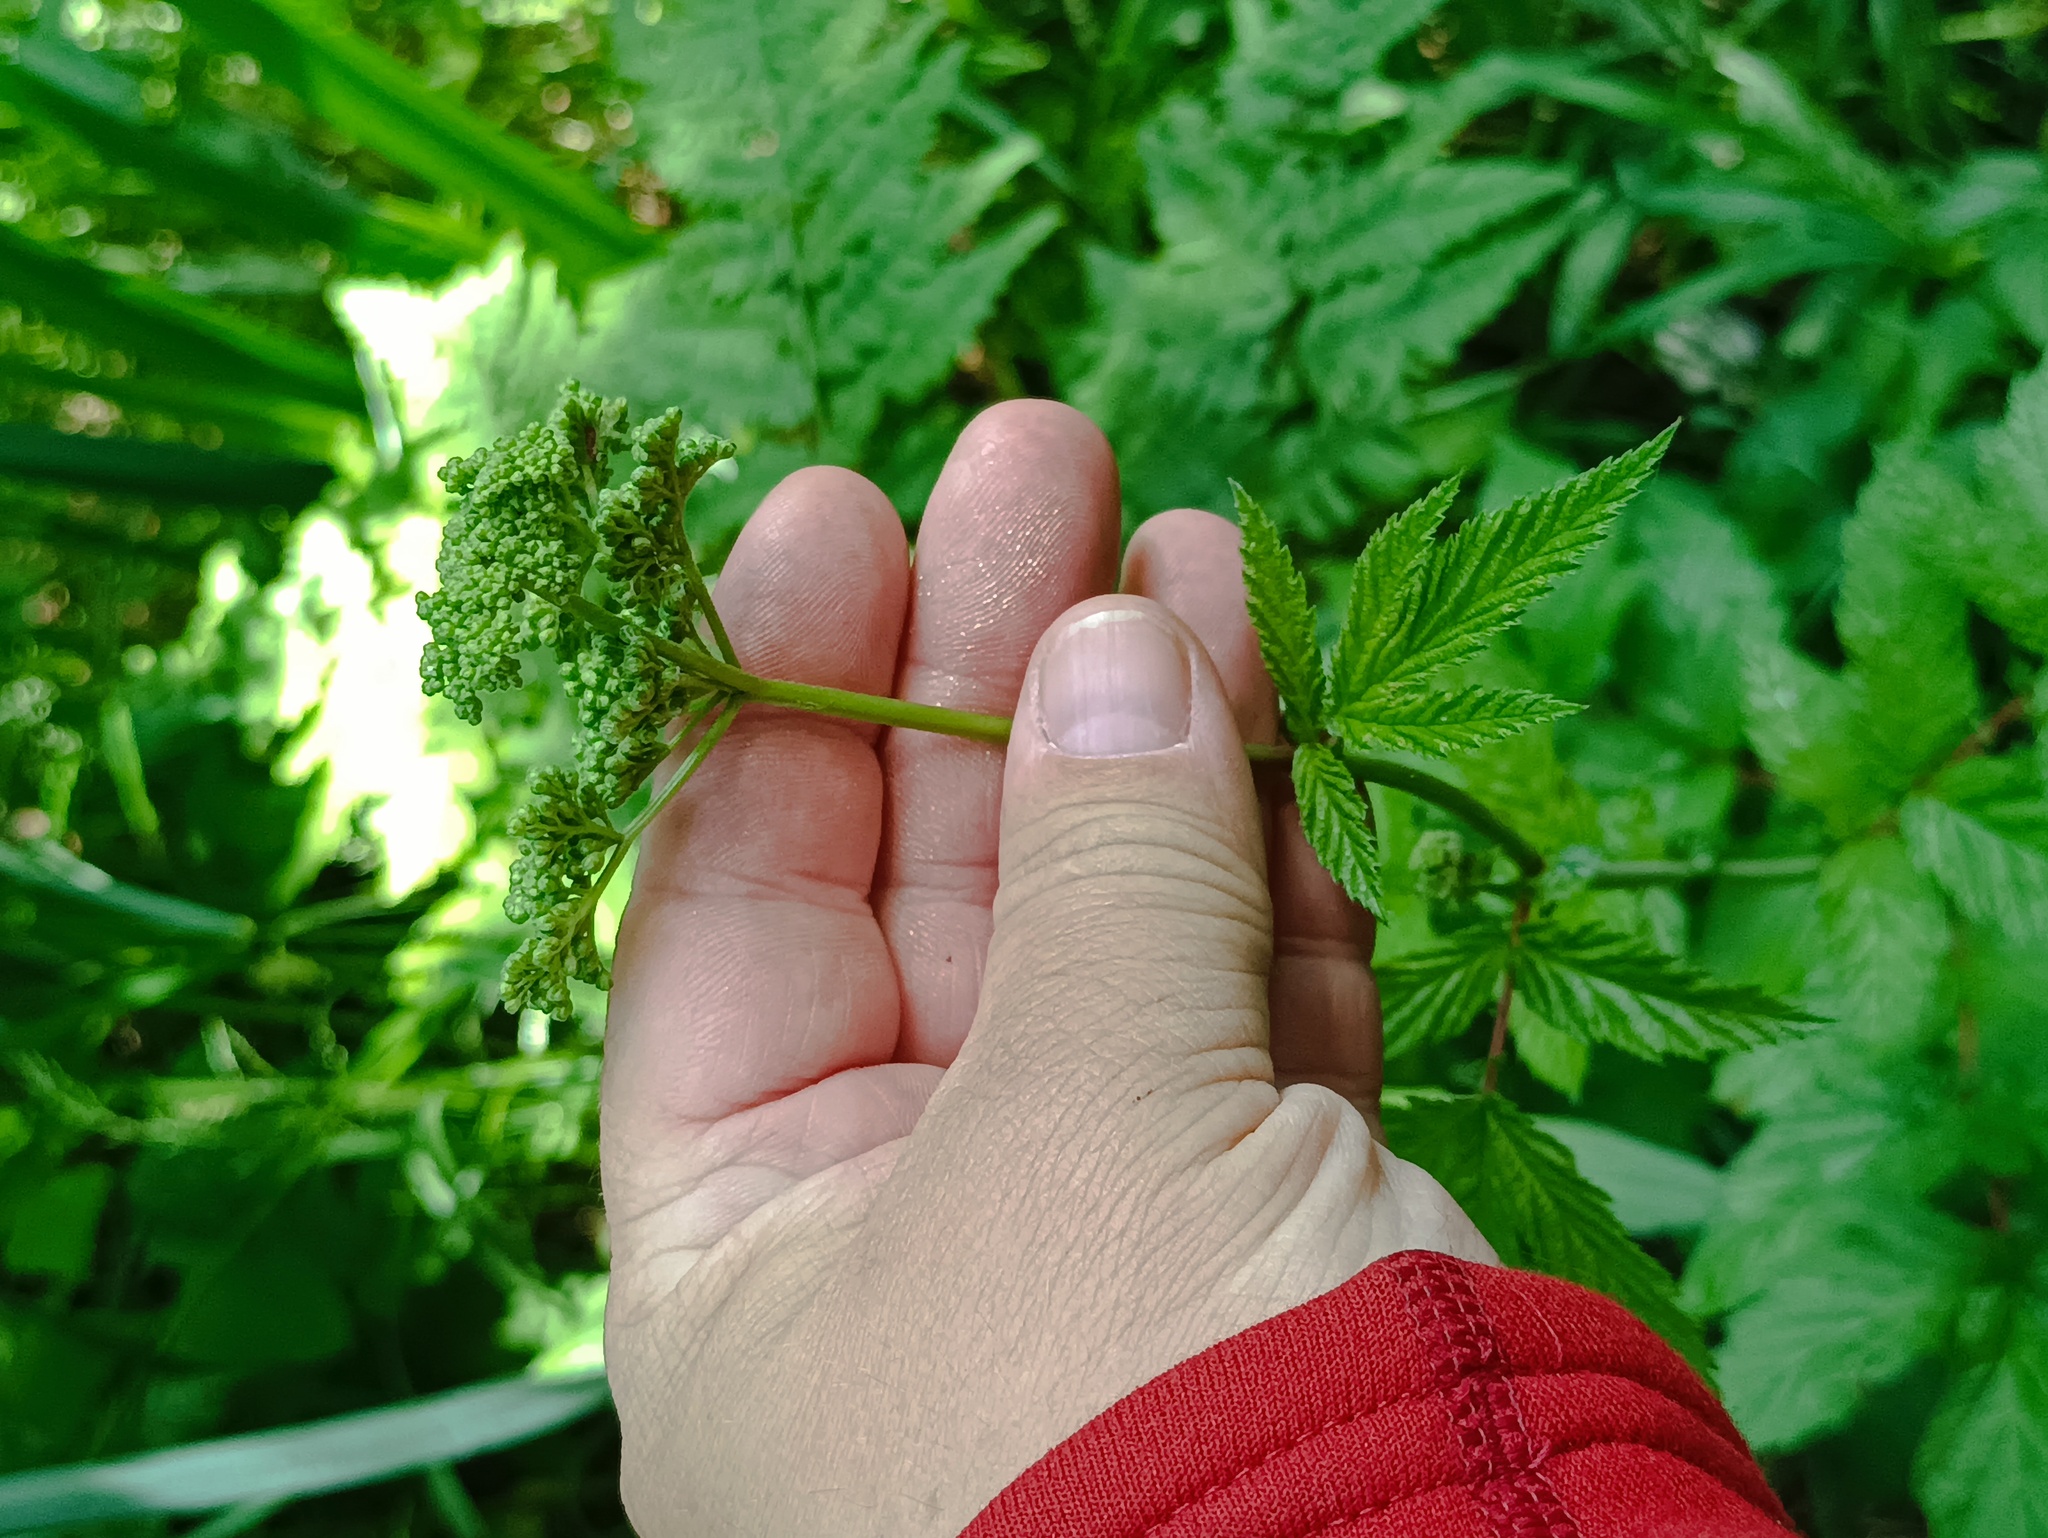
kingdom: Plantae
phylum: Tracheophyta
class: Magnoliopsida
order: Rosales
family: Rosaceae
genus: Filipendula
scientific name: Filipendula ulmaria
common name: Meadowsweet
